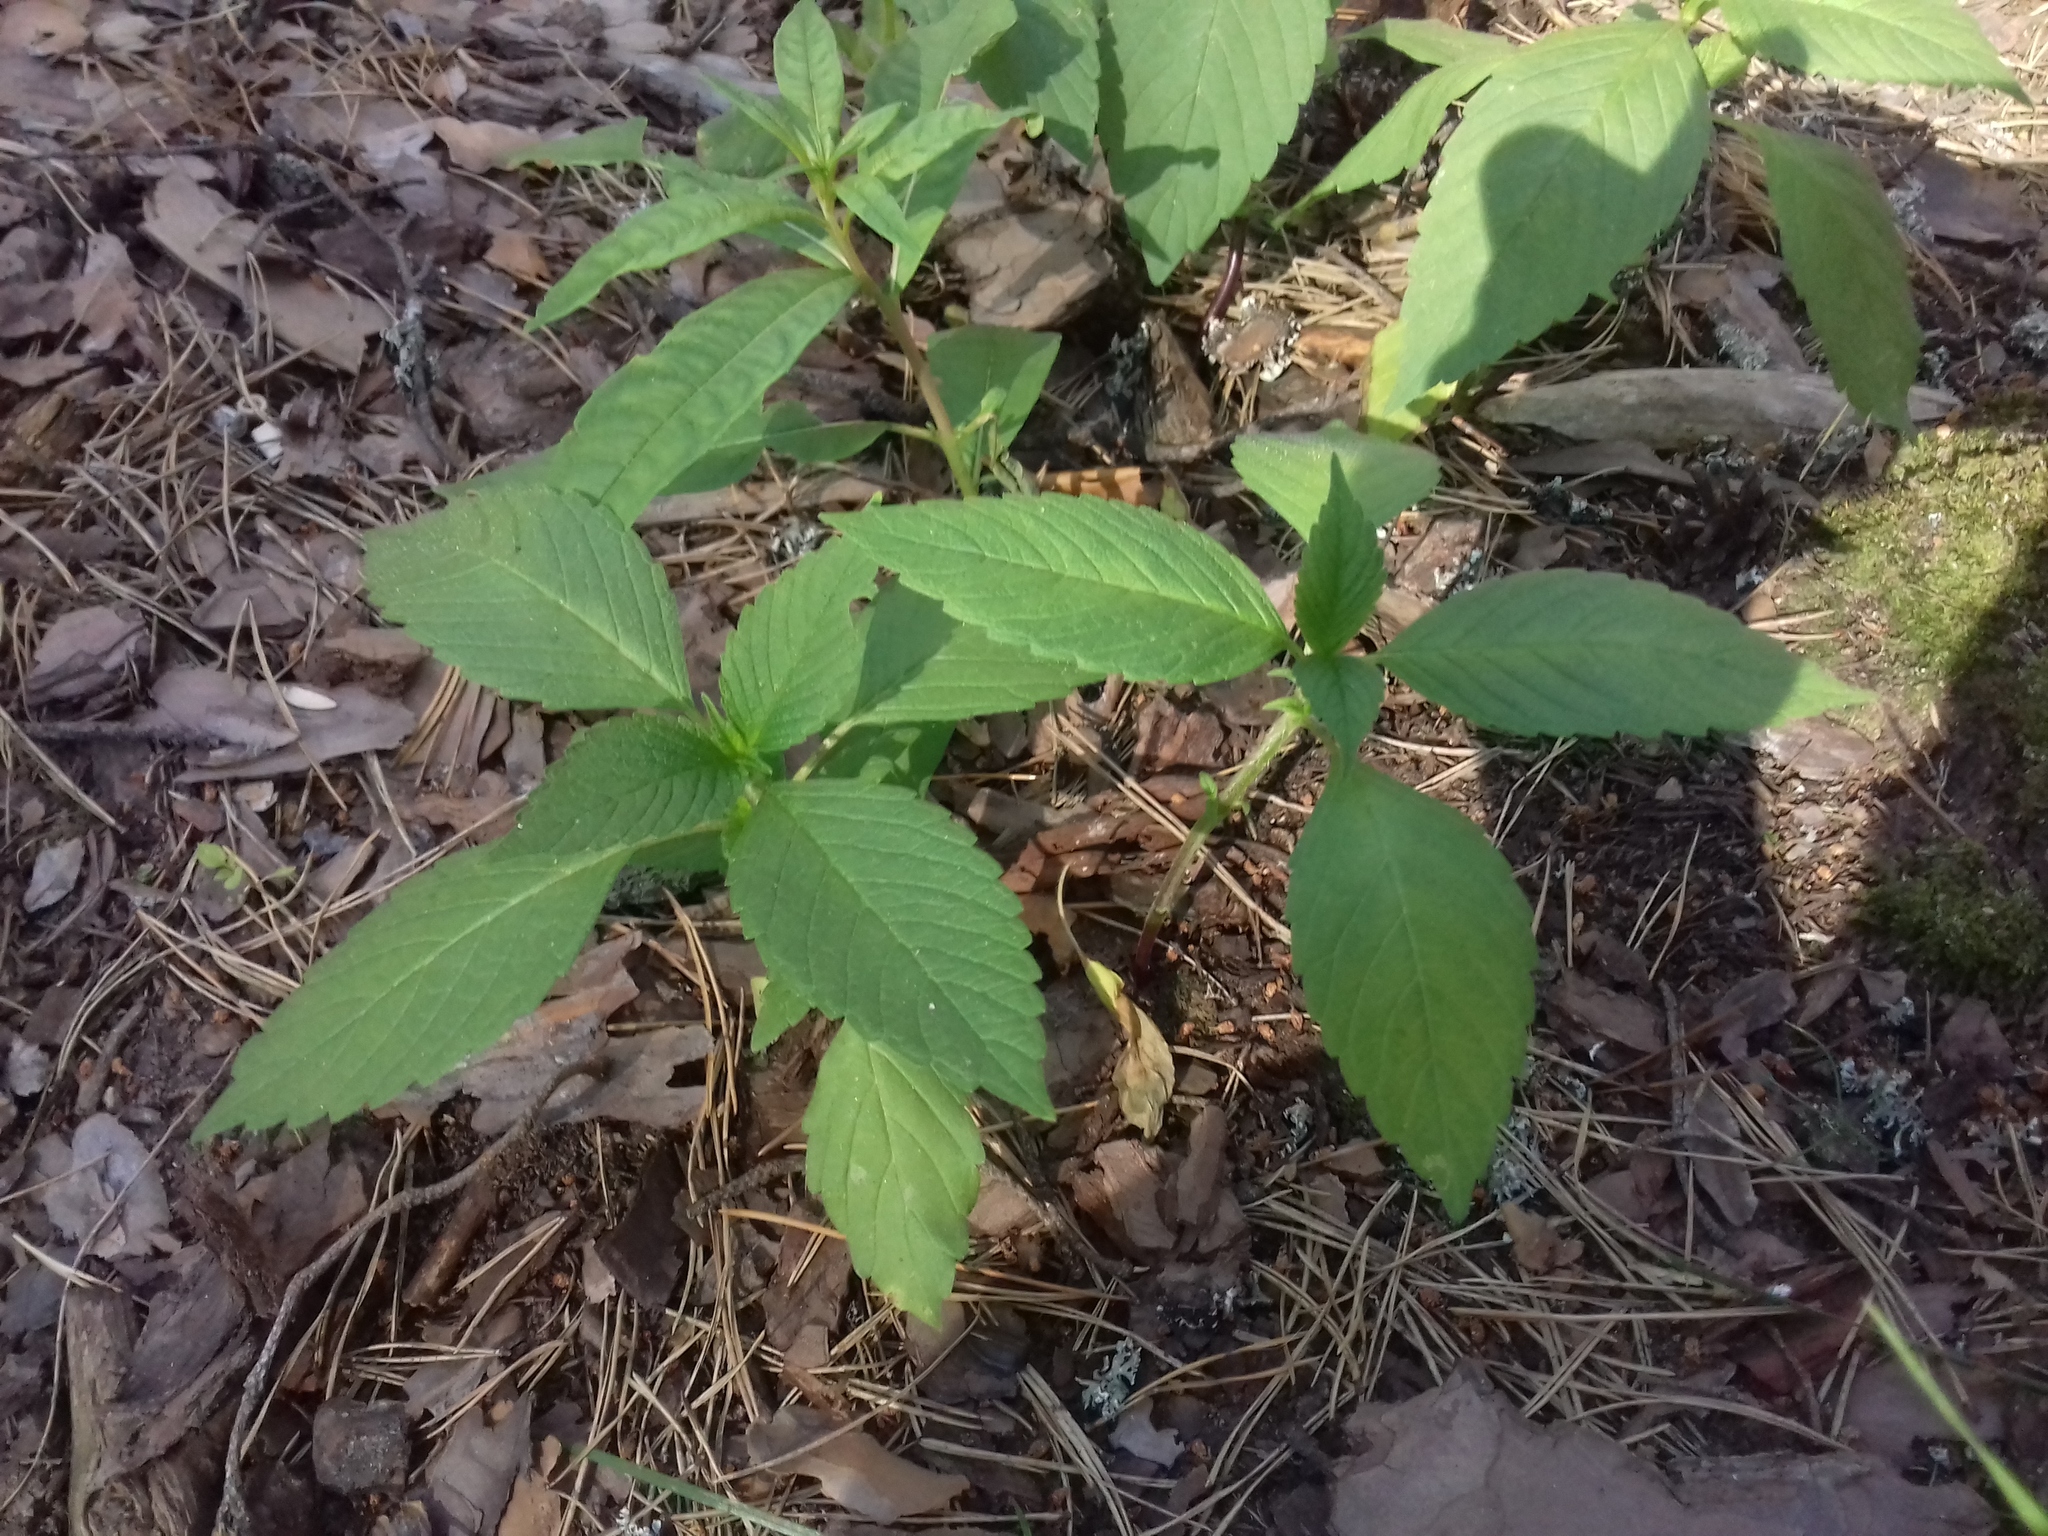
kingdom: Plantae
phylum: Tracheophyta
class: Magnoliopsida
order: Lamiales
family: Lamiaceae
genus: Galeopsis
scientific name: Galeopsis
